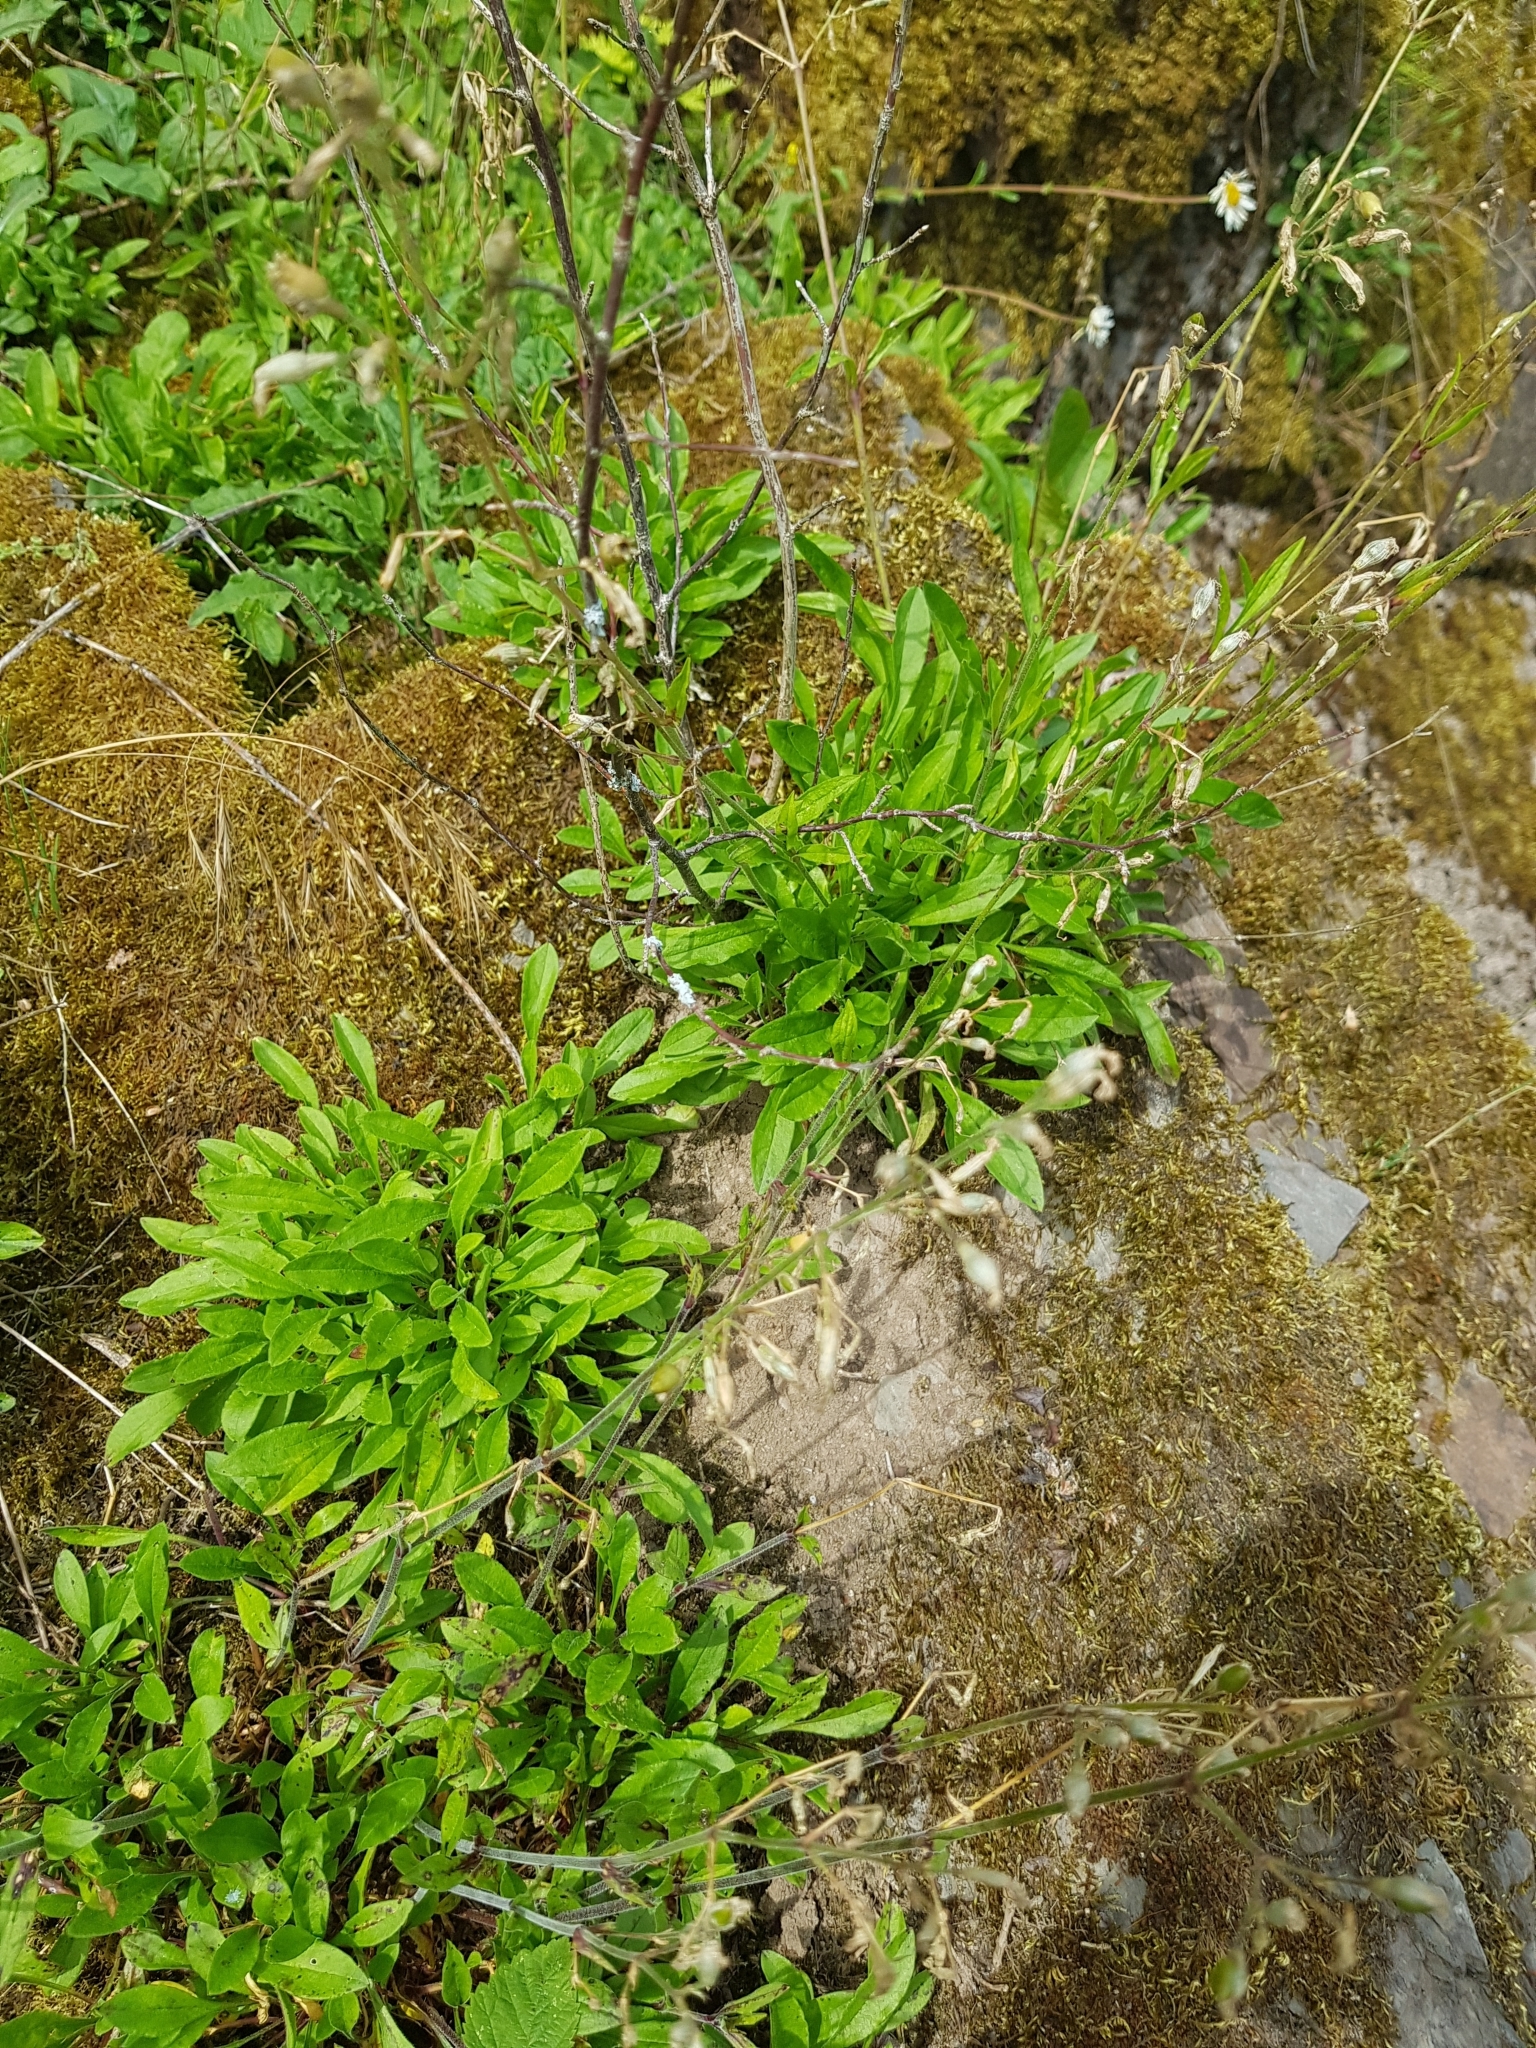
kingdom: Plantae
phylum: Tracheophyta
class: Magnoliopsida
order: Caryophyllales
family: Caryophyllaceae
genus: Silene
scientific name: Silene nutans
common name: Nottingham catchfly
